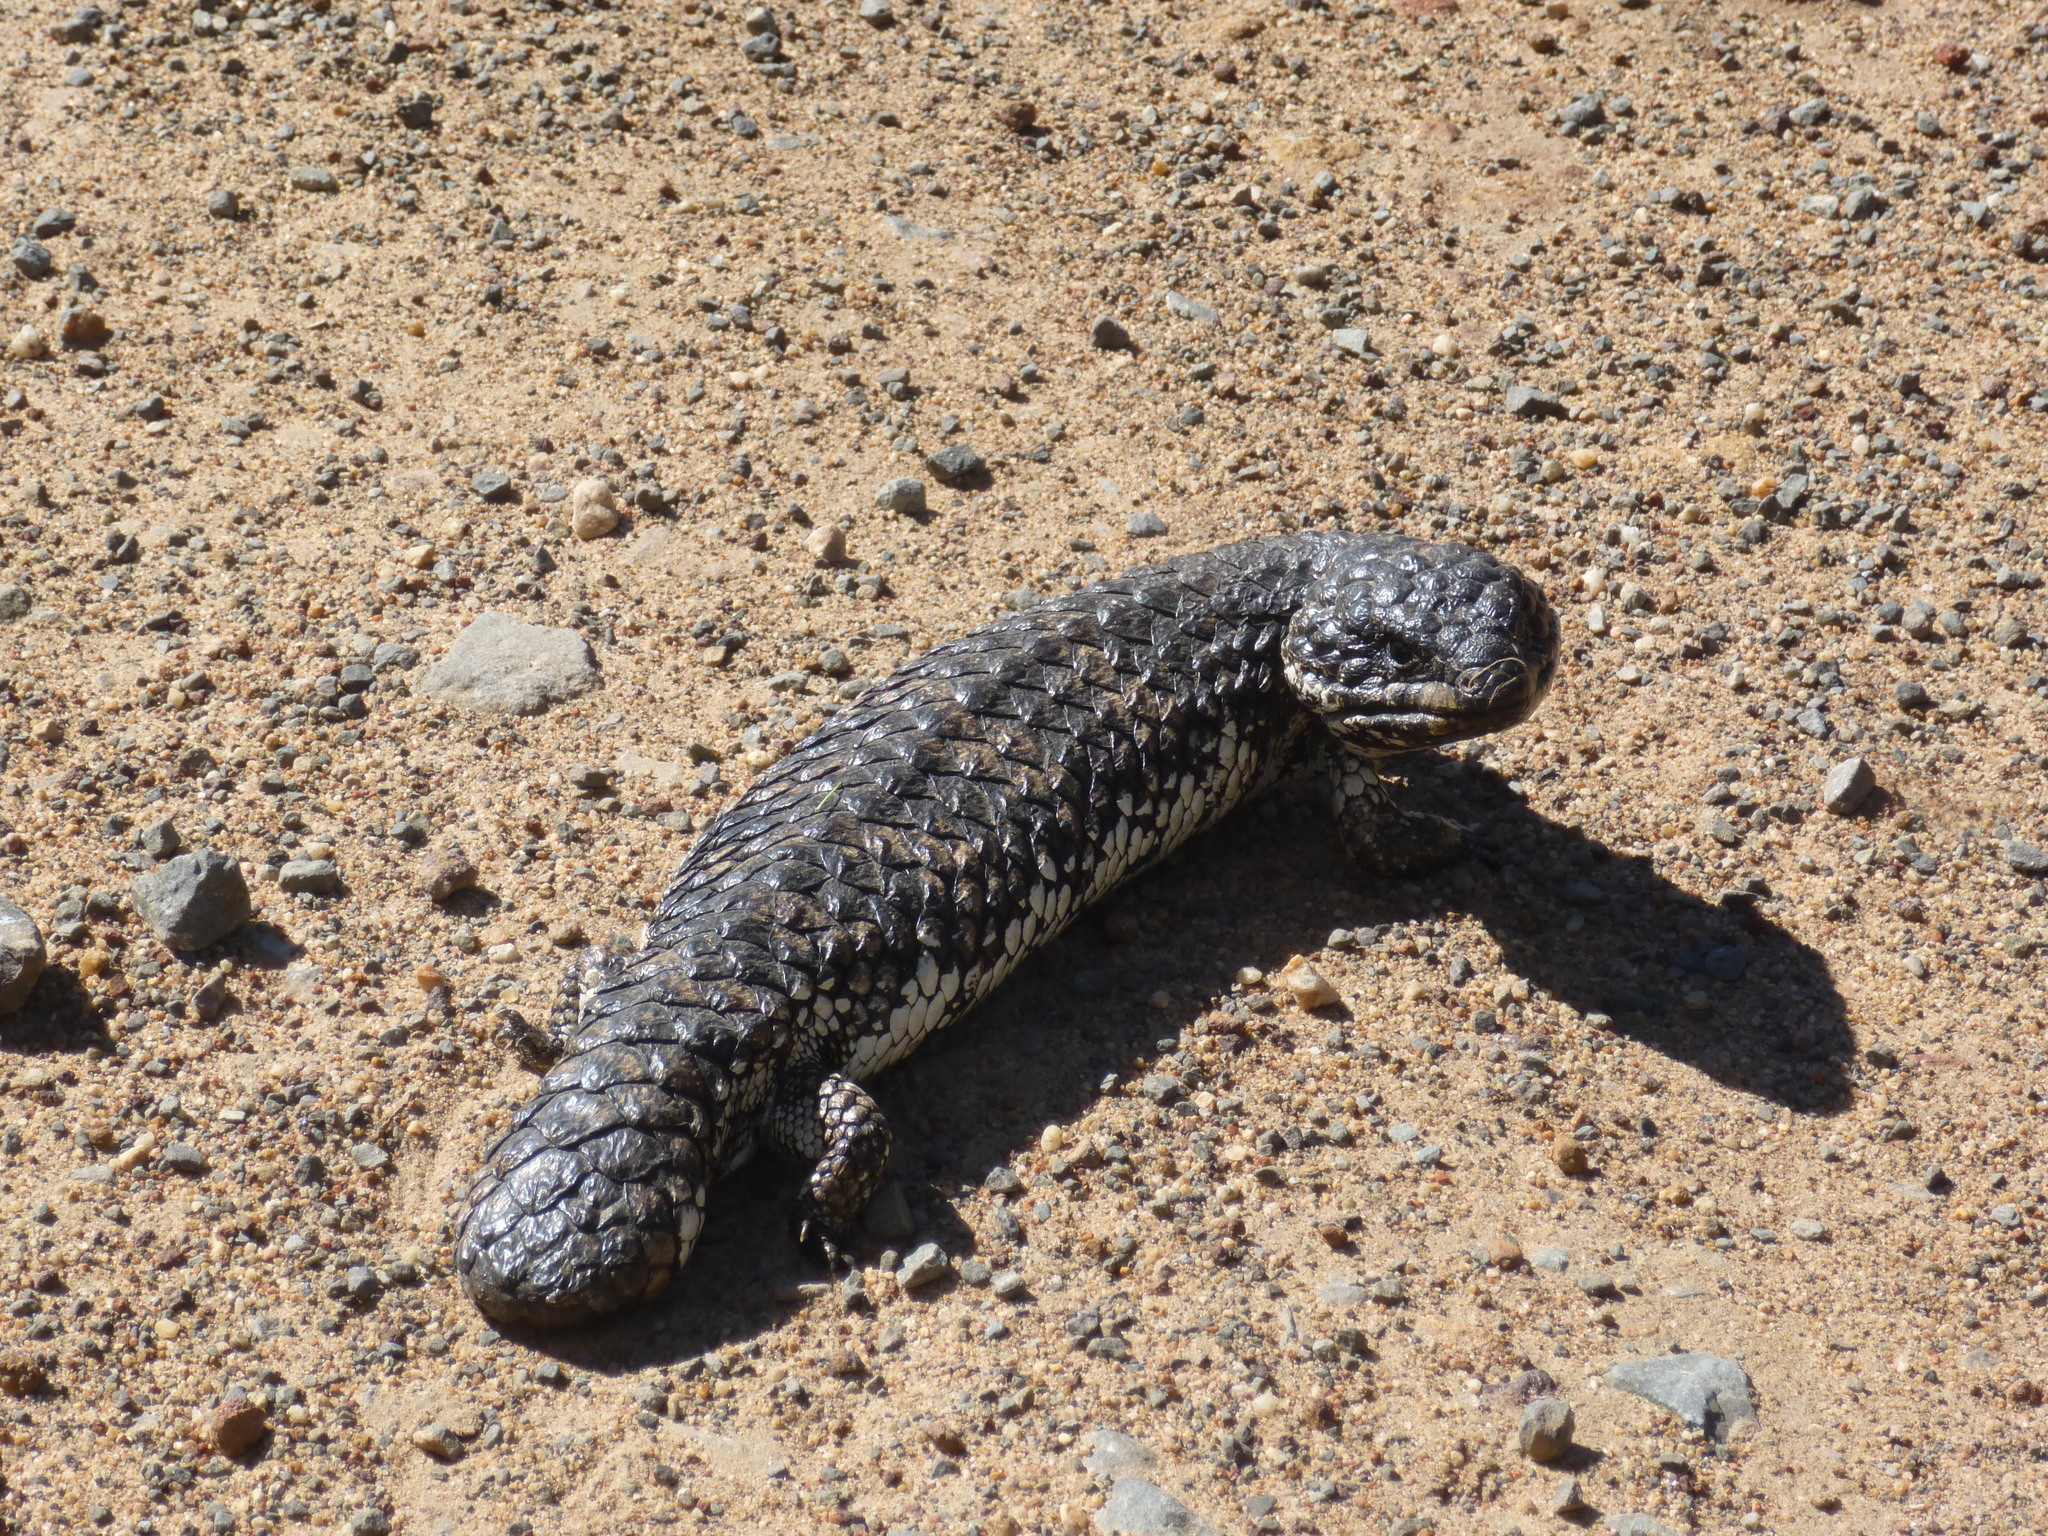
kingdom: Animalia
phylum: Chordata
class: Squamata
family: Scincidae
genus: Tiliqua
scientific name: Tiliqua rugosa
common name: Pinecone lizard
